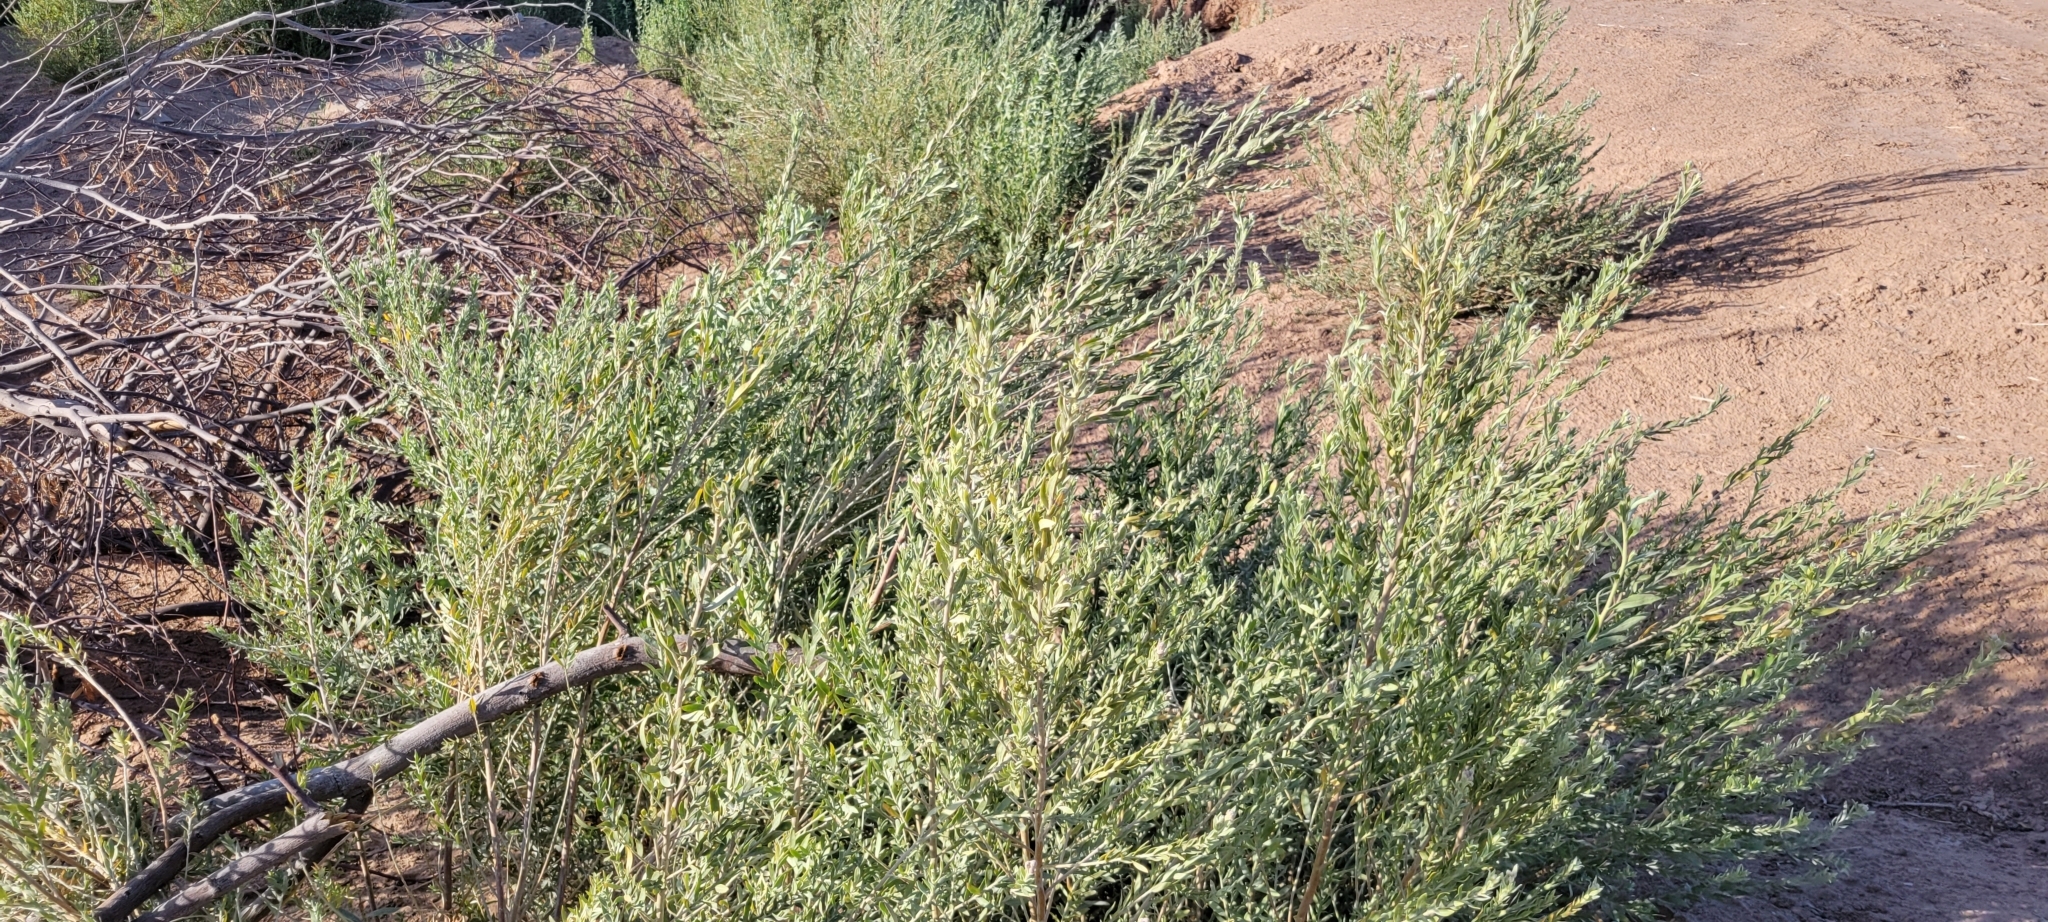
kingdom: Plantae
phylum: Tracheophyta
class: Magnoliopsida
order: Asterales
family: Asteraceae
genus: Pluchea
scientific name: Pluchea sericea
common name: Arrow-weed
